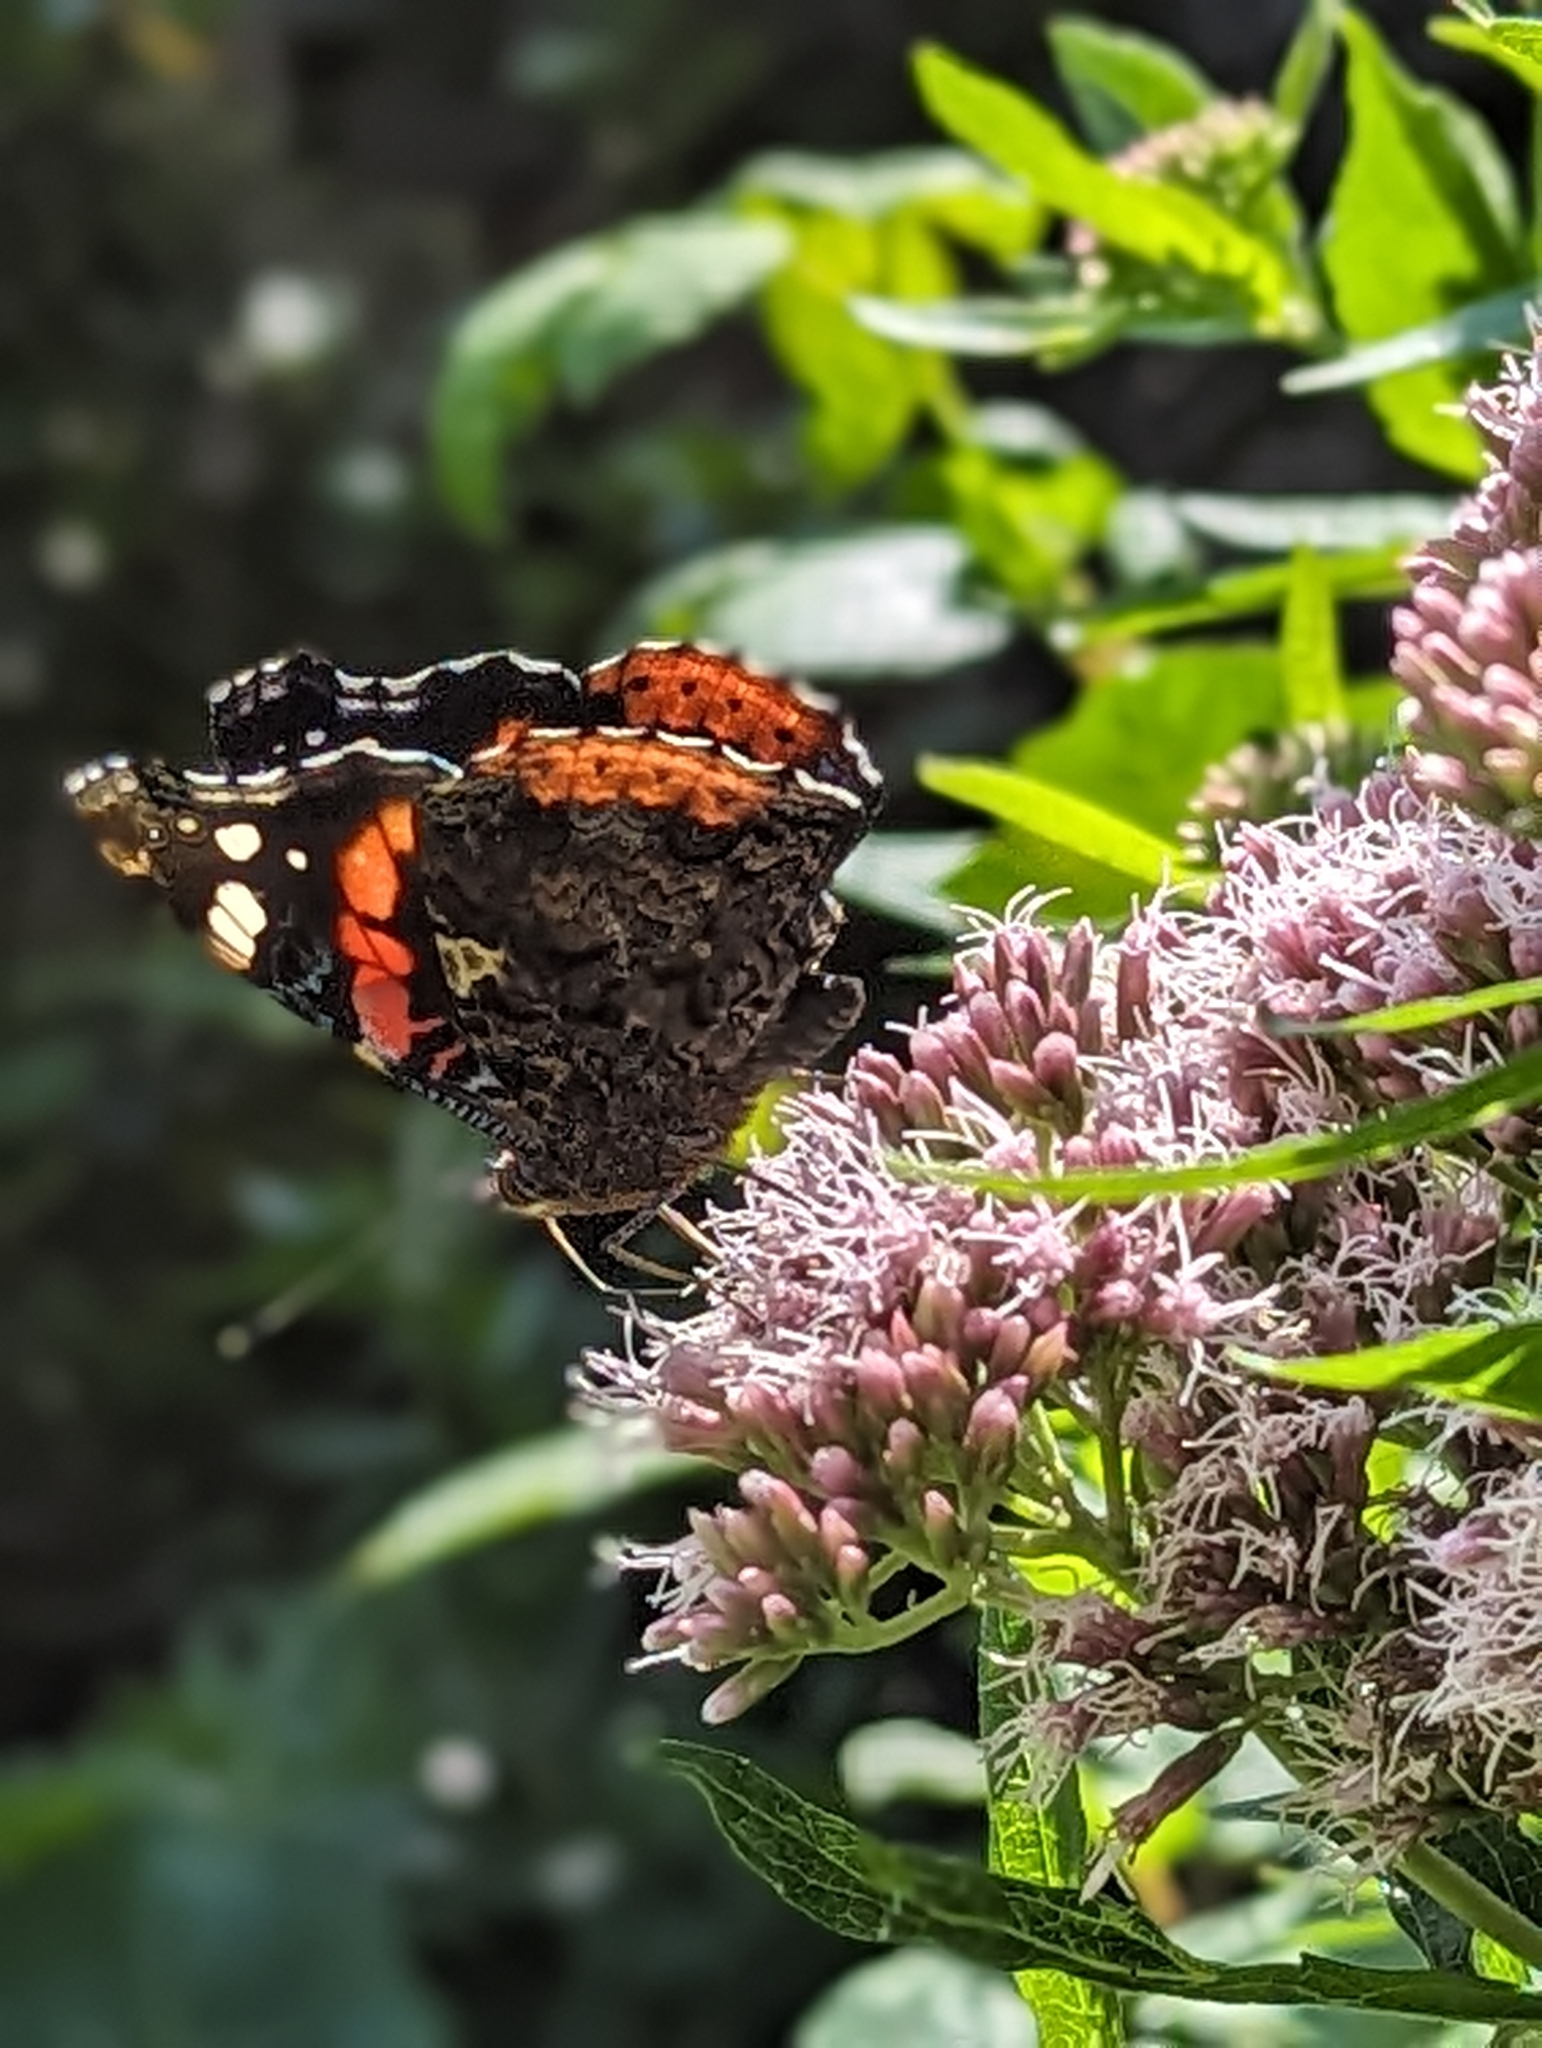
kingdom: Animalia
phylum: Arthropoda
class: Insecta
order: Lepidoptera
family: Nymphalidae
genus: Vanessa
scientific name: Vanessa atalanta
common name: Red admiral
